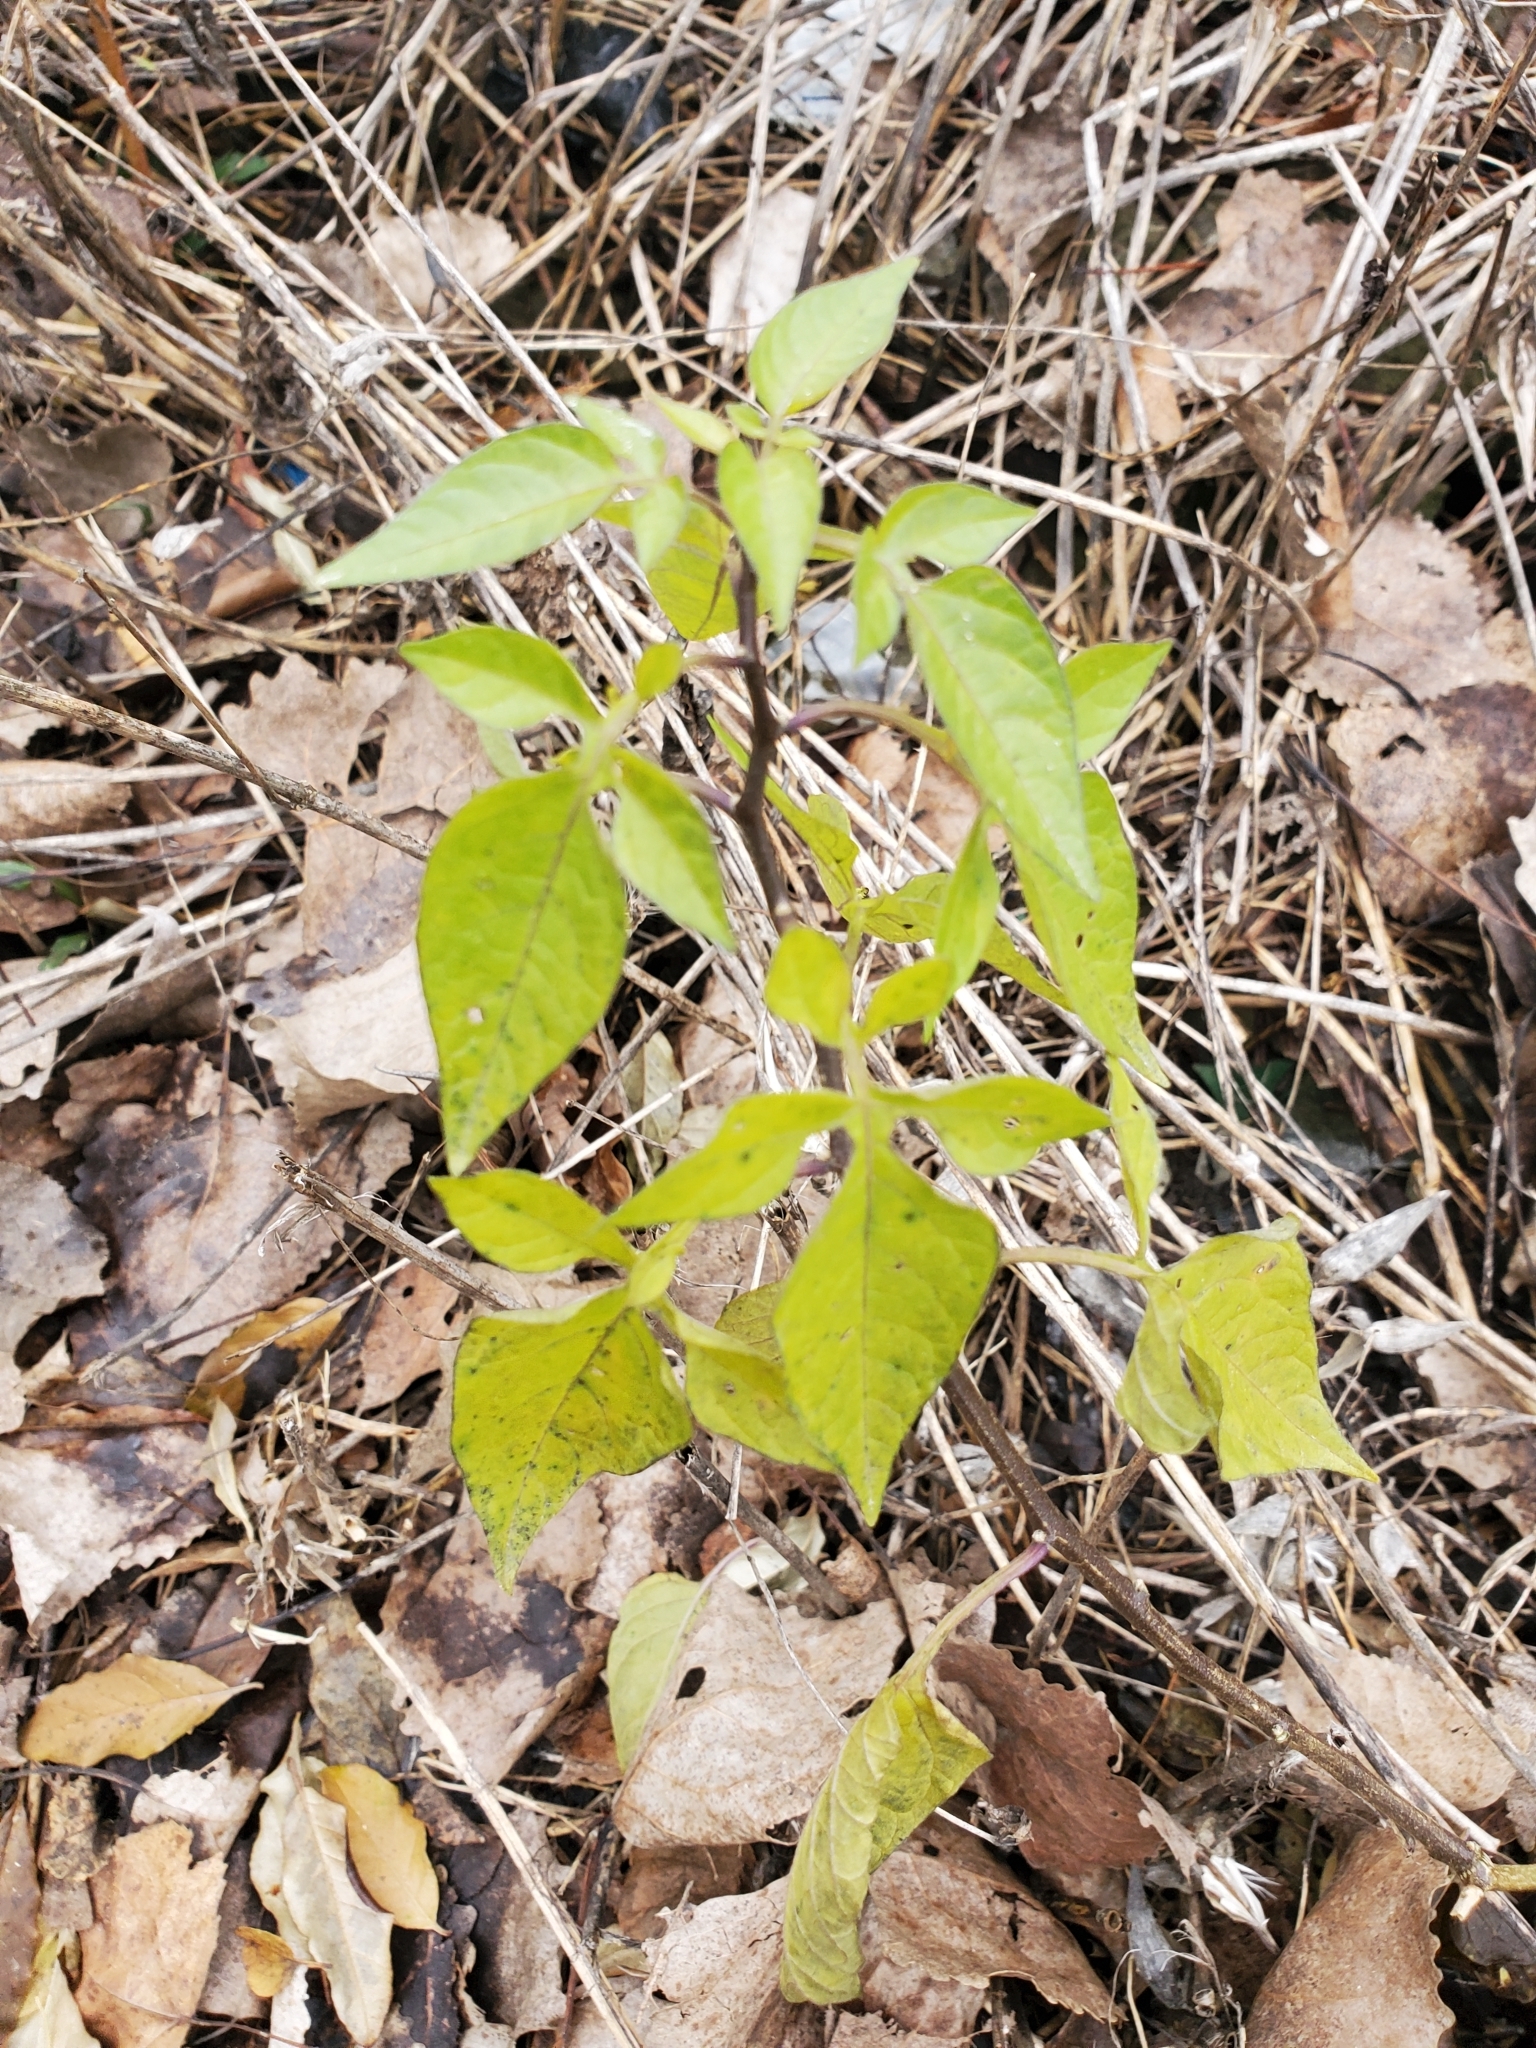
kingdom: Plantae
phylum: Tracheophyta
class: Magnoliopsida
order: Solanales
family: Solanaceae
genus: Solanum
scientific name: Solanum dulcamara
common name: Climbing nightshade
